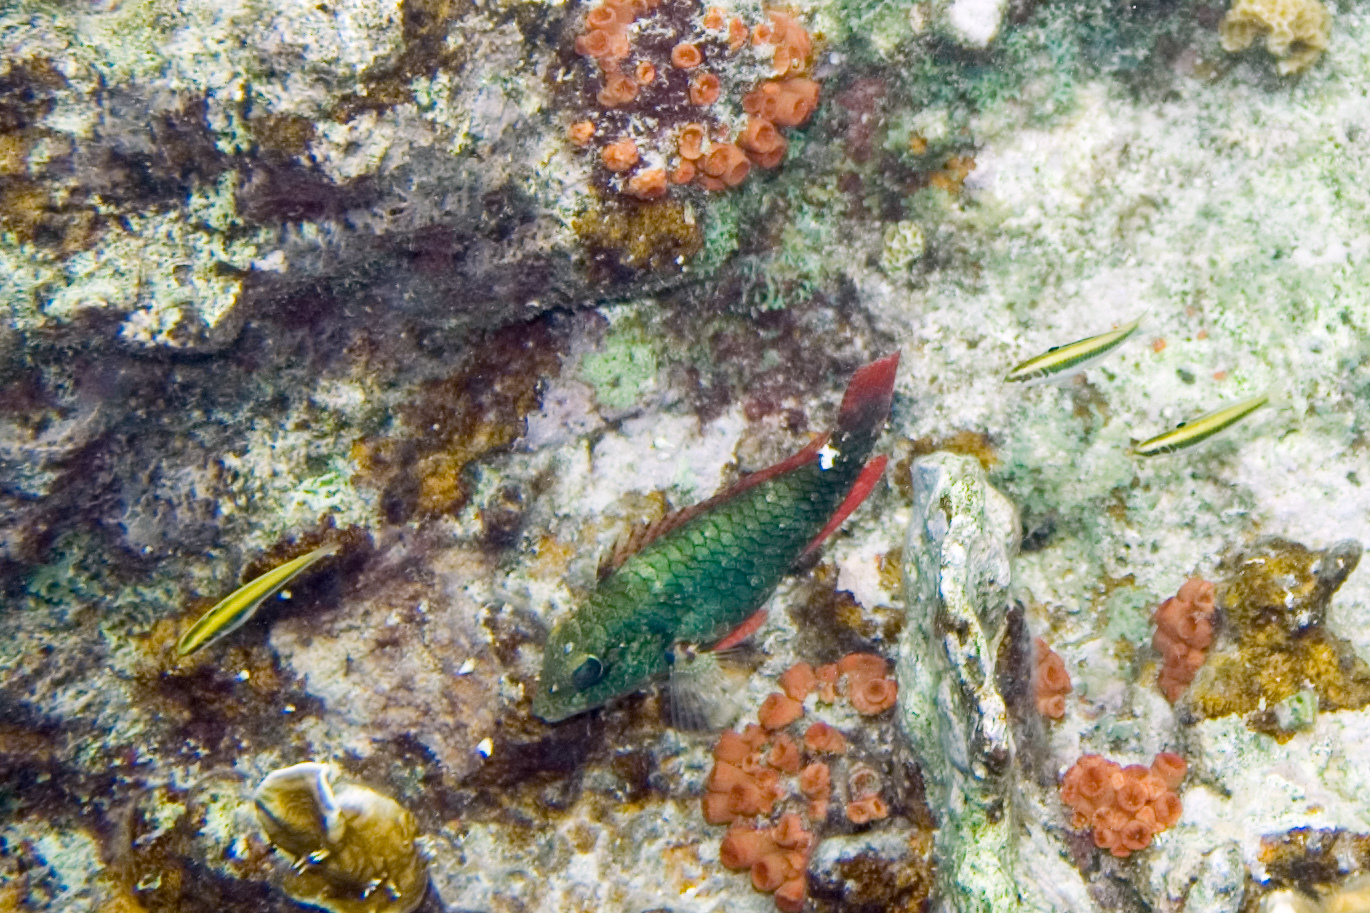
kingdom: Animalia
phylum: Chordata
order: Perciformes
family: Scaridae
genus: Sparisoma
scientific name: Sparisoma aurofrenatum
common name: Redband parrotfish
